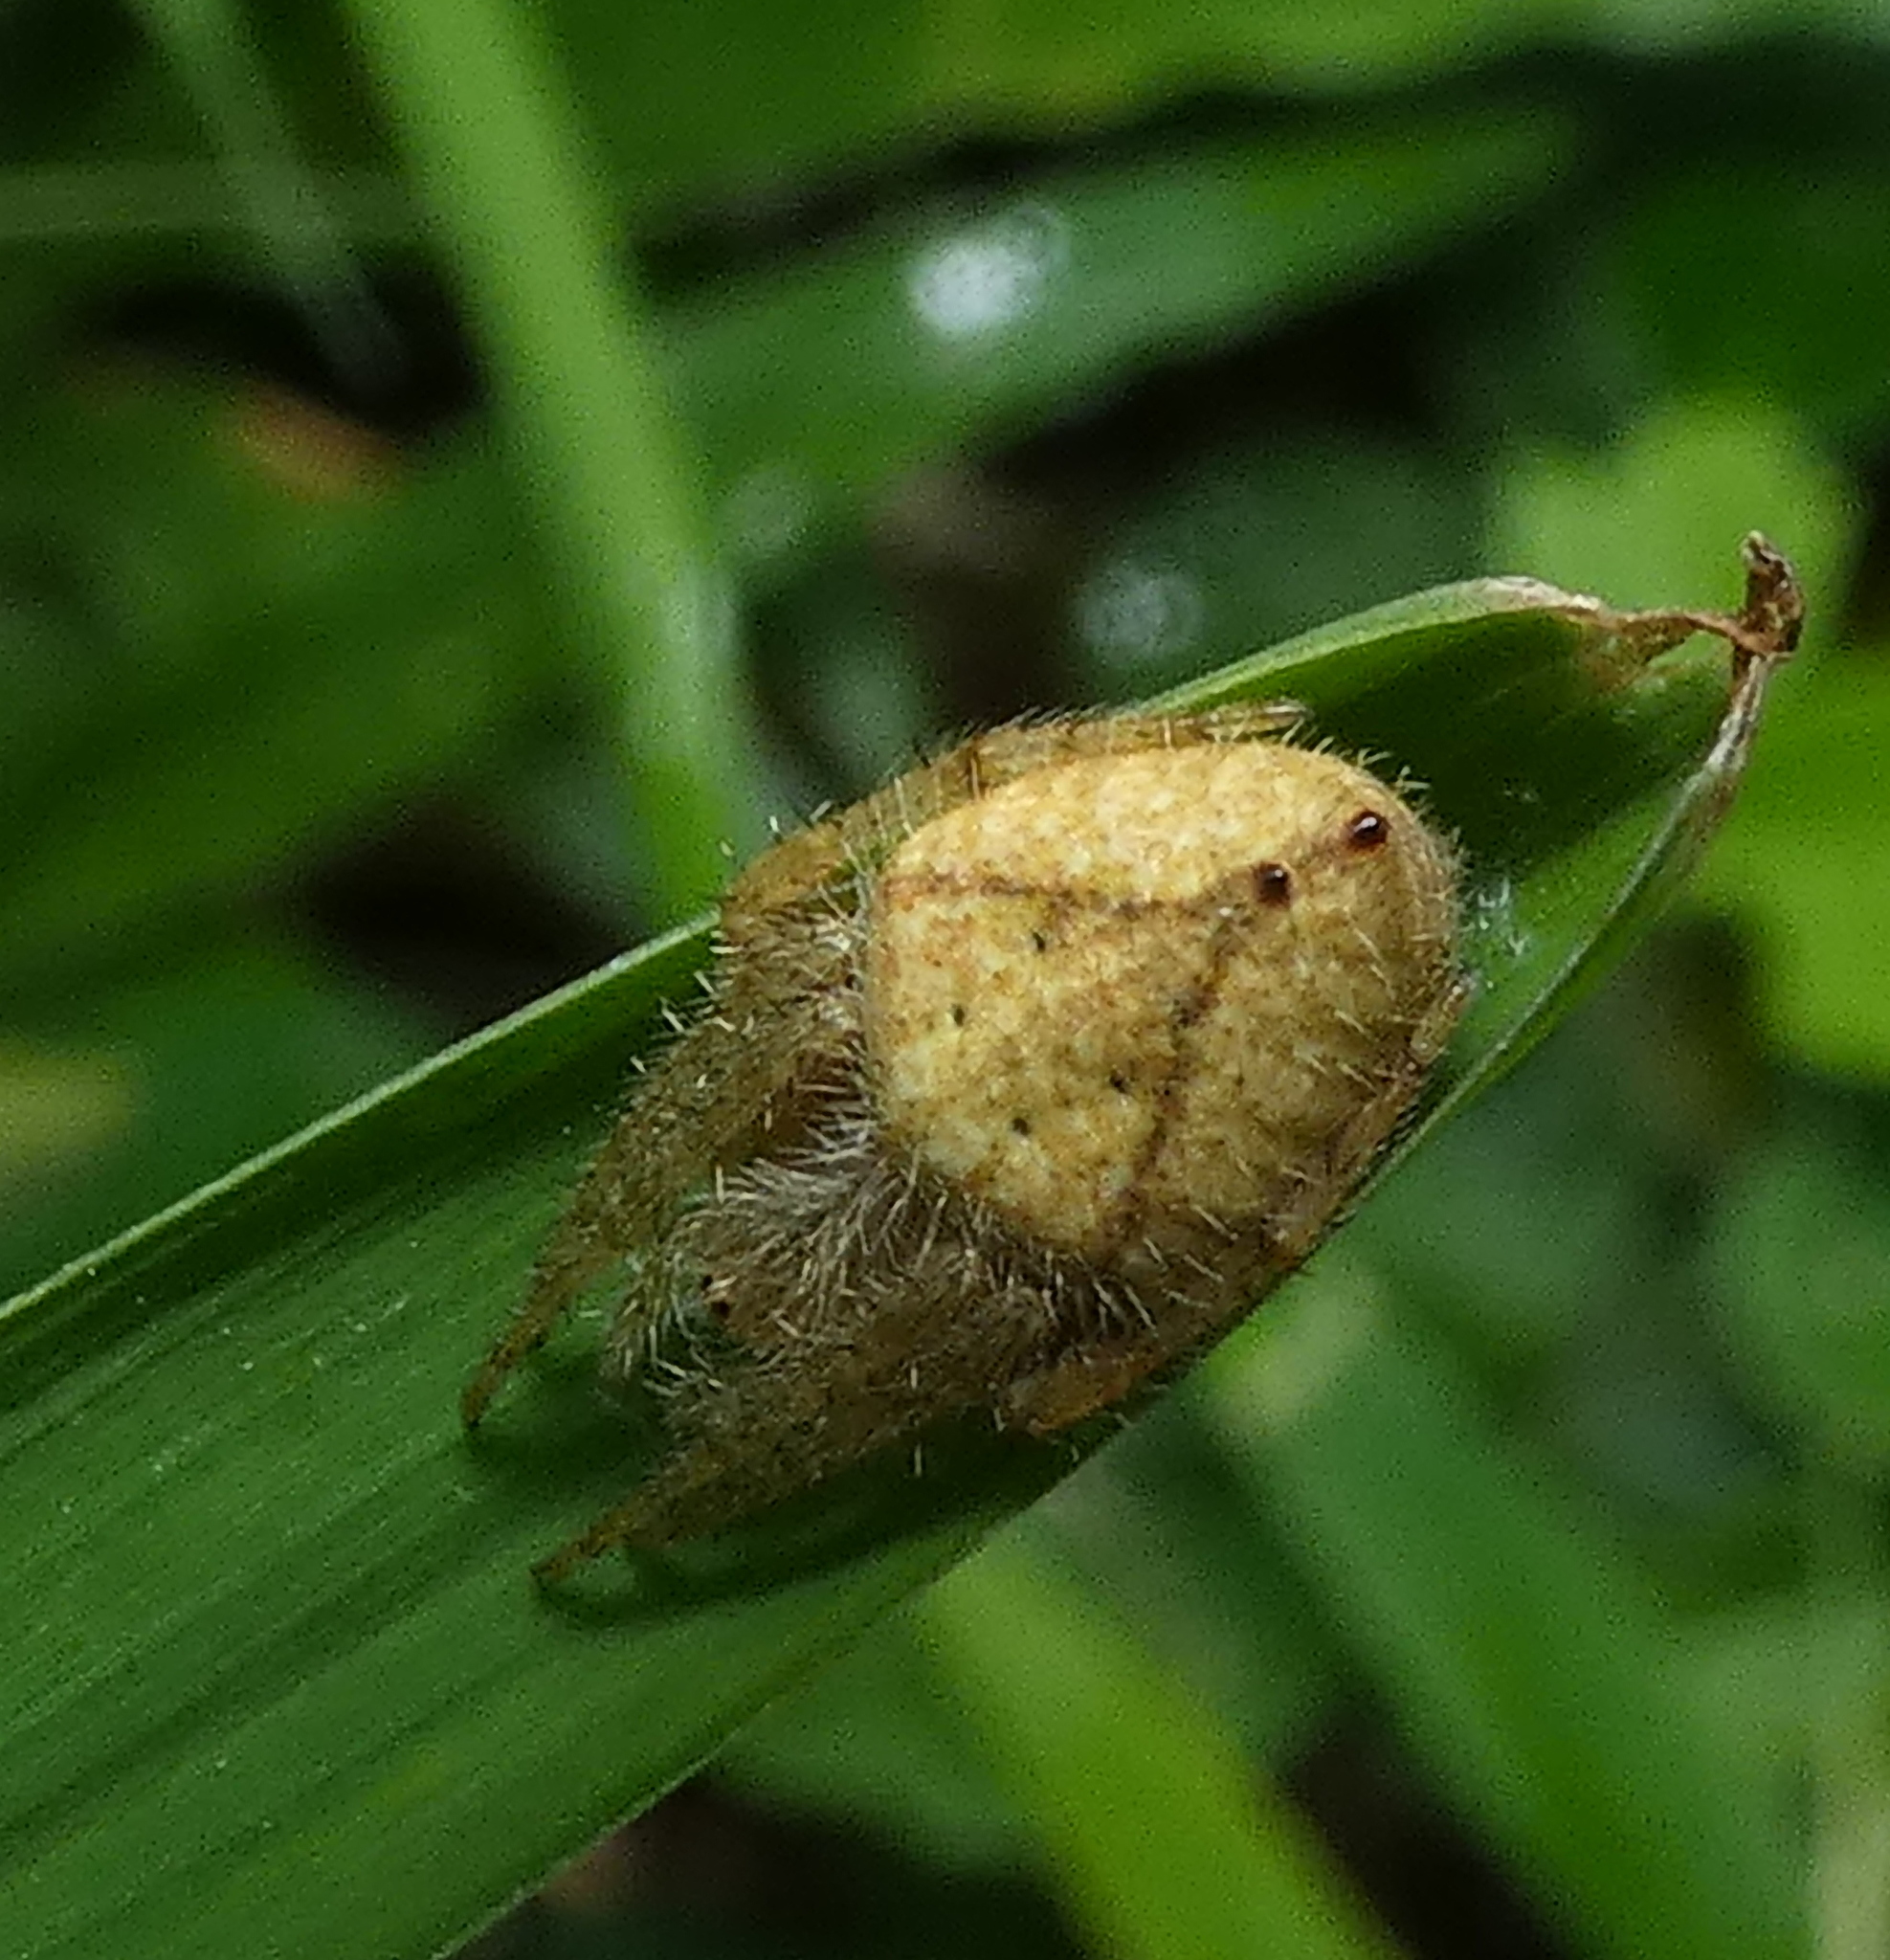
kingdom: Animalia
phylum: Arthropoda
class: Arachnida
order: Araneae
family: Araneidae
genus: Eriophora
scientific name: Eriophora edax
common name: Orb weavers
